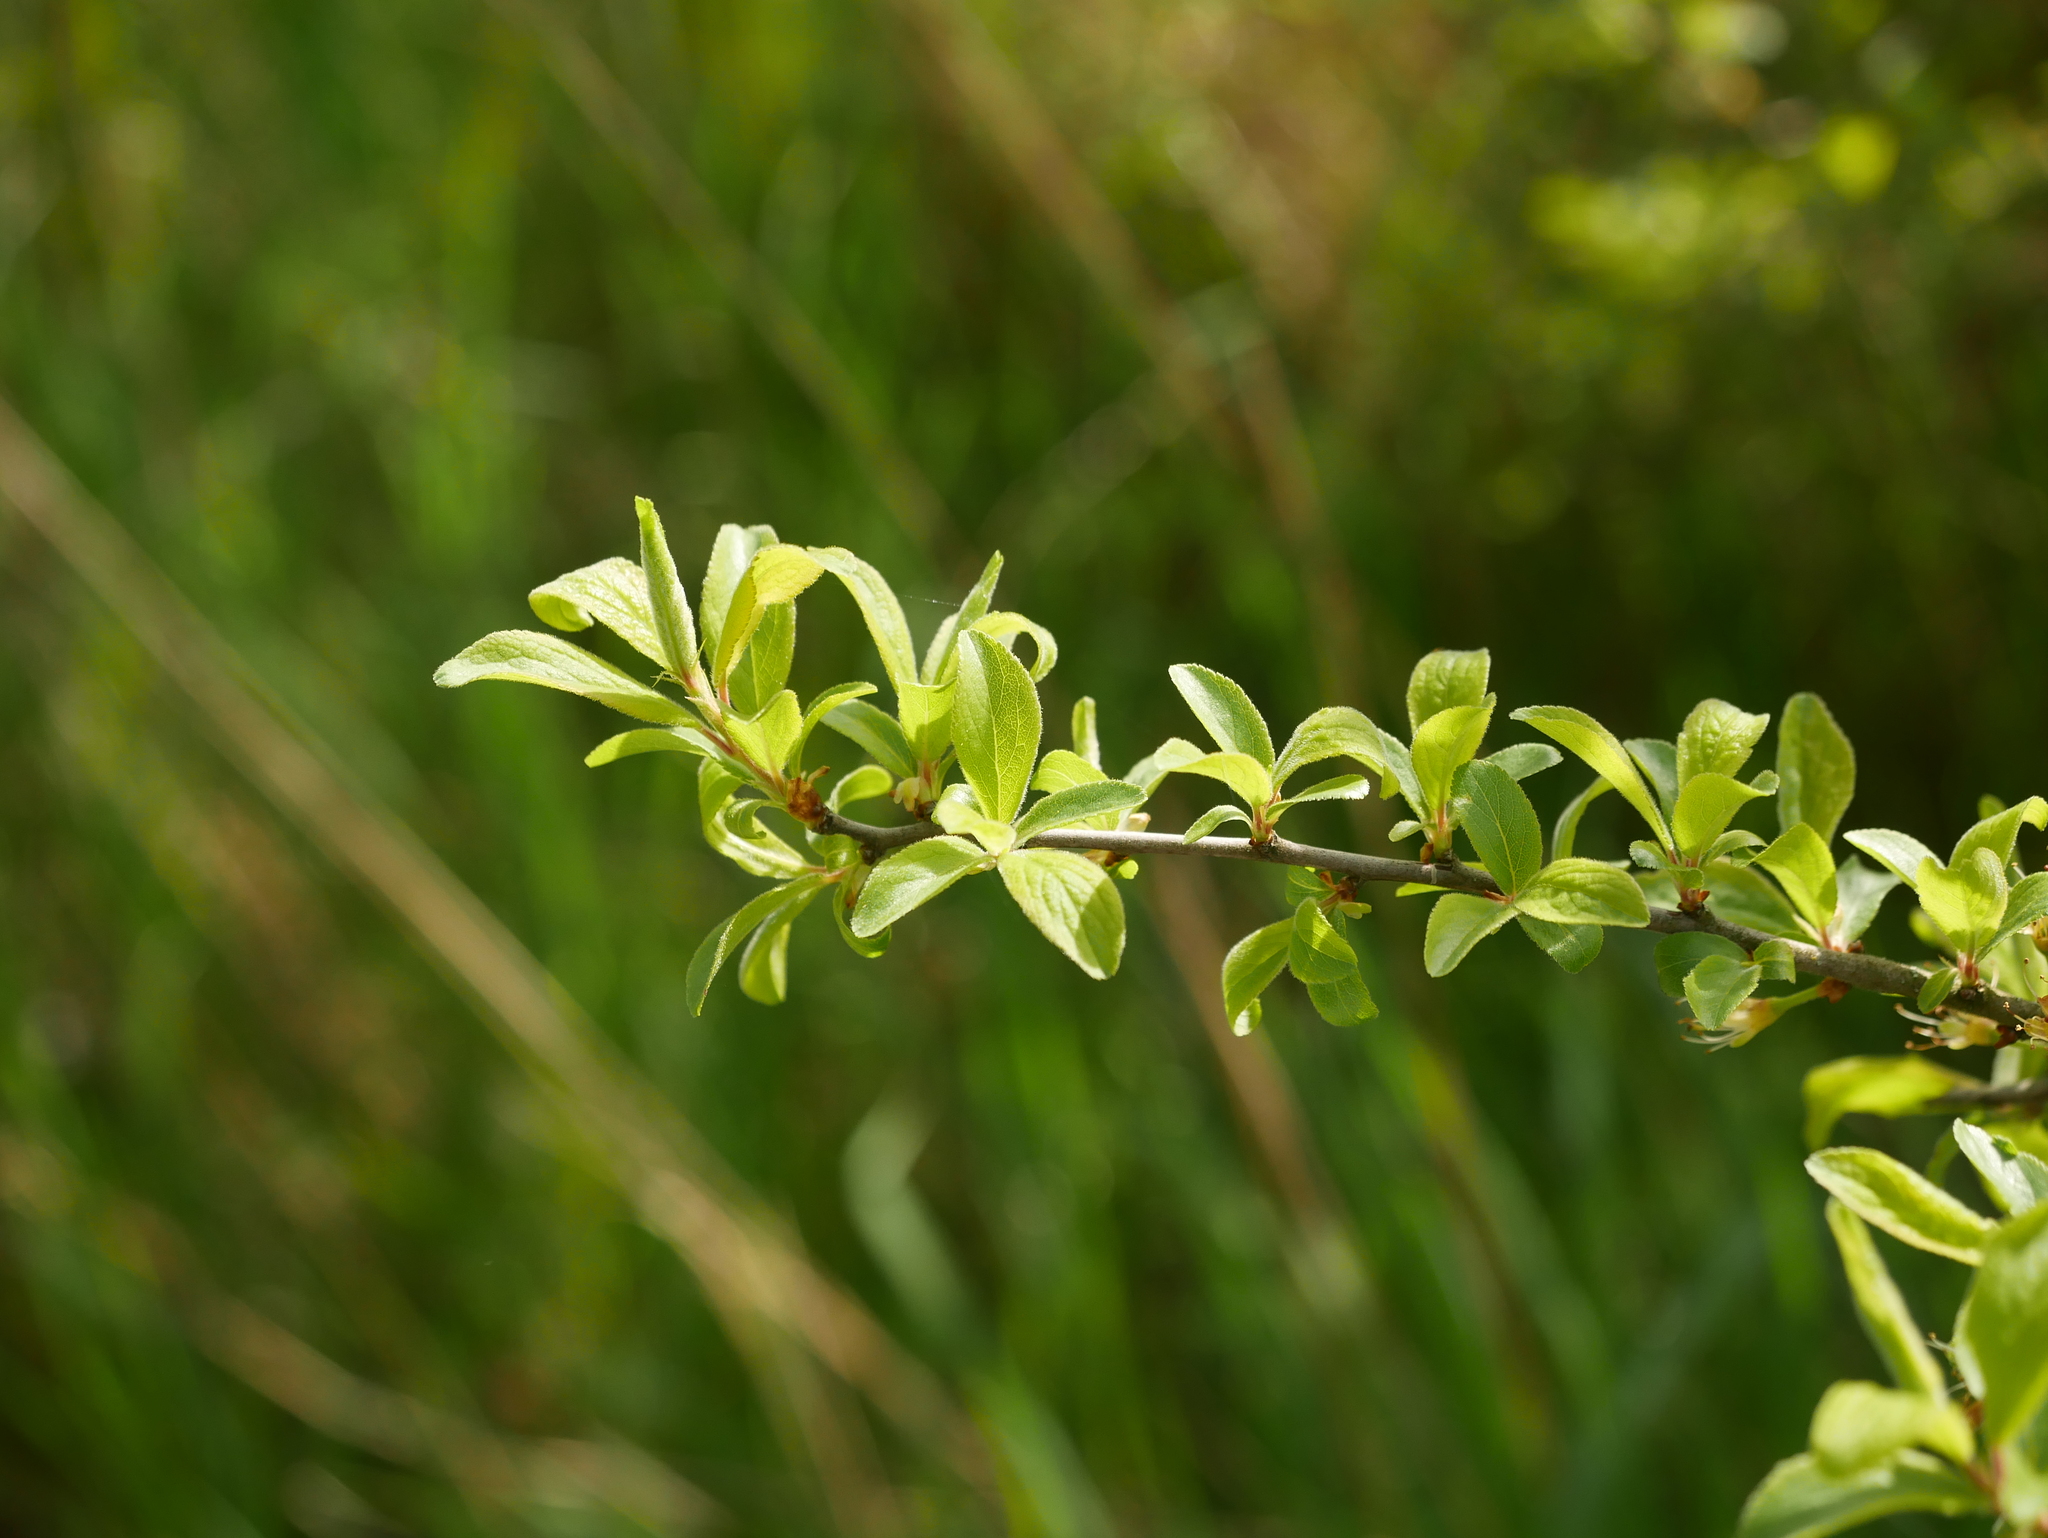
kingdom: Plantae
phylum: Tracheophyta
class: Magnoliopsida
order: Rosales
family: Rosaceae
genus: Prunus
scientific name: Prunus spinosa
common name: Blackthorn
